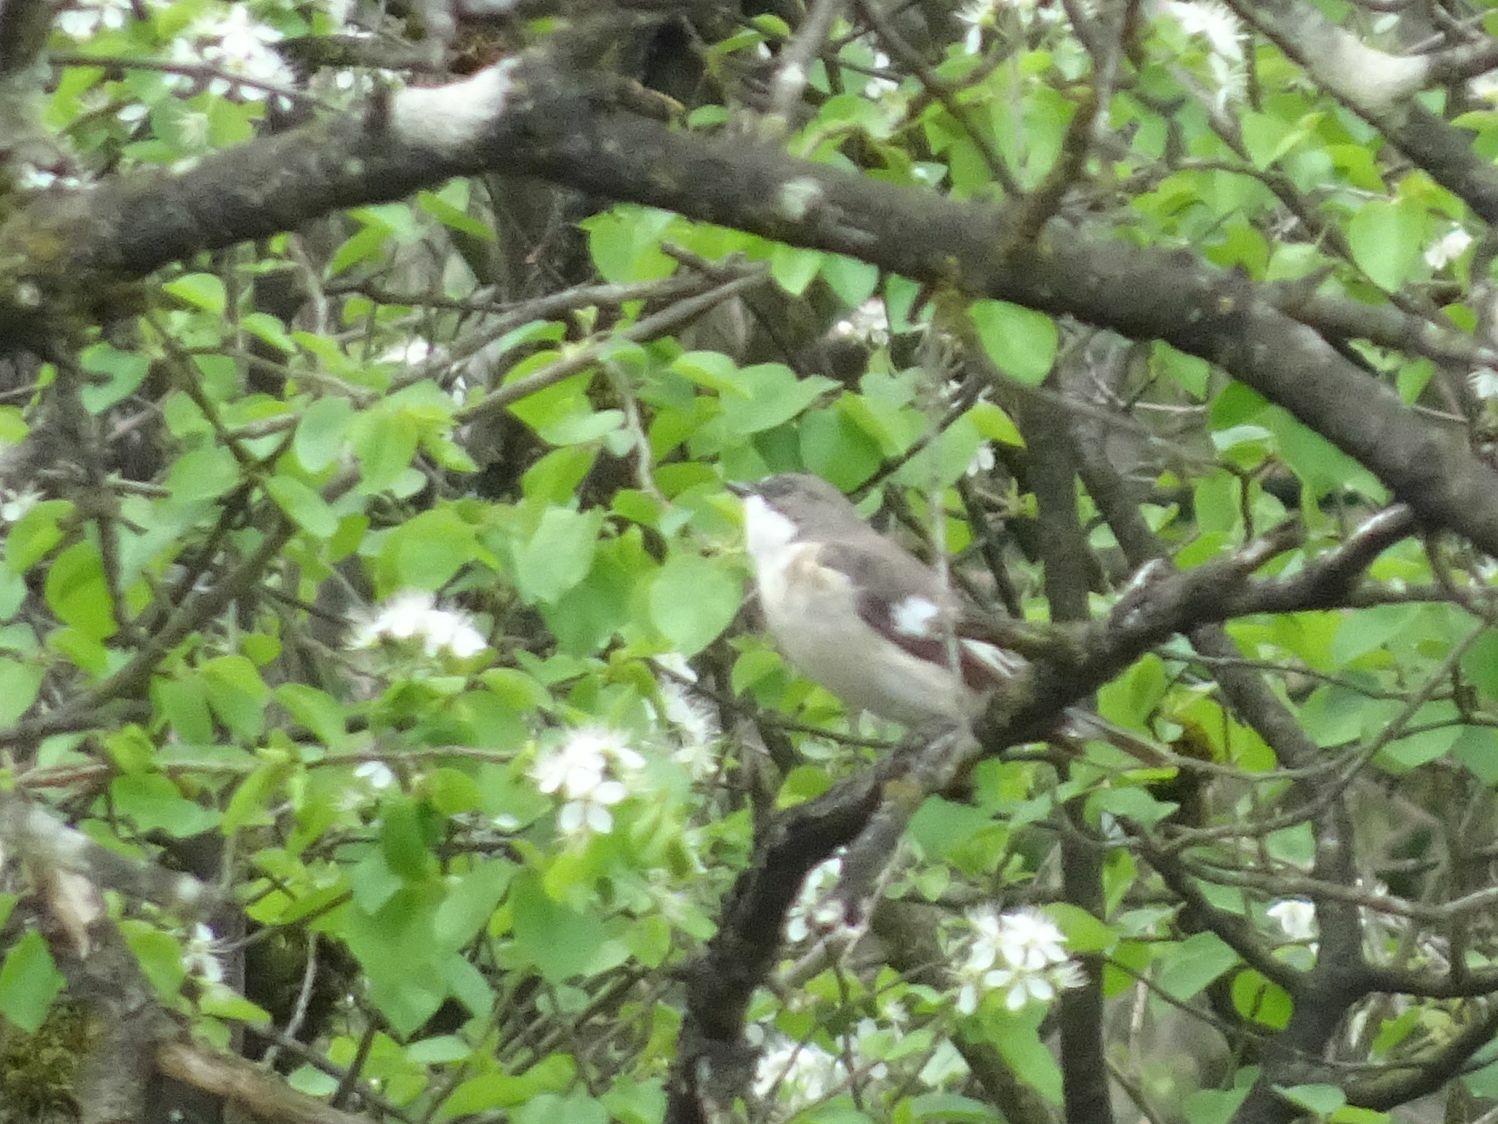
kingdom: Animalia
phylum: Chordata
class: Aves
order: Passeriformes
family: Muscicapidae
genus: Ficedula
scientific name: Ficedula hypoleuca
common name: European pied flycatcher
